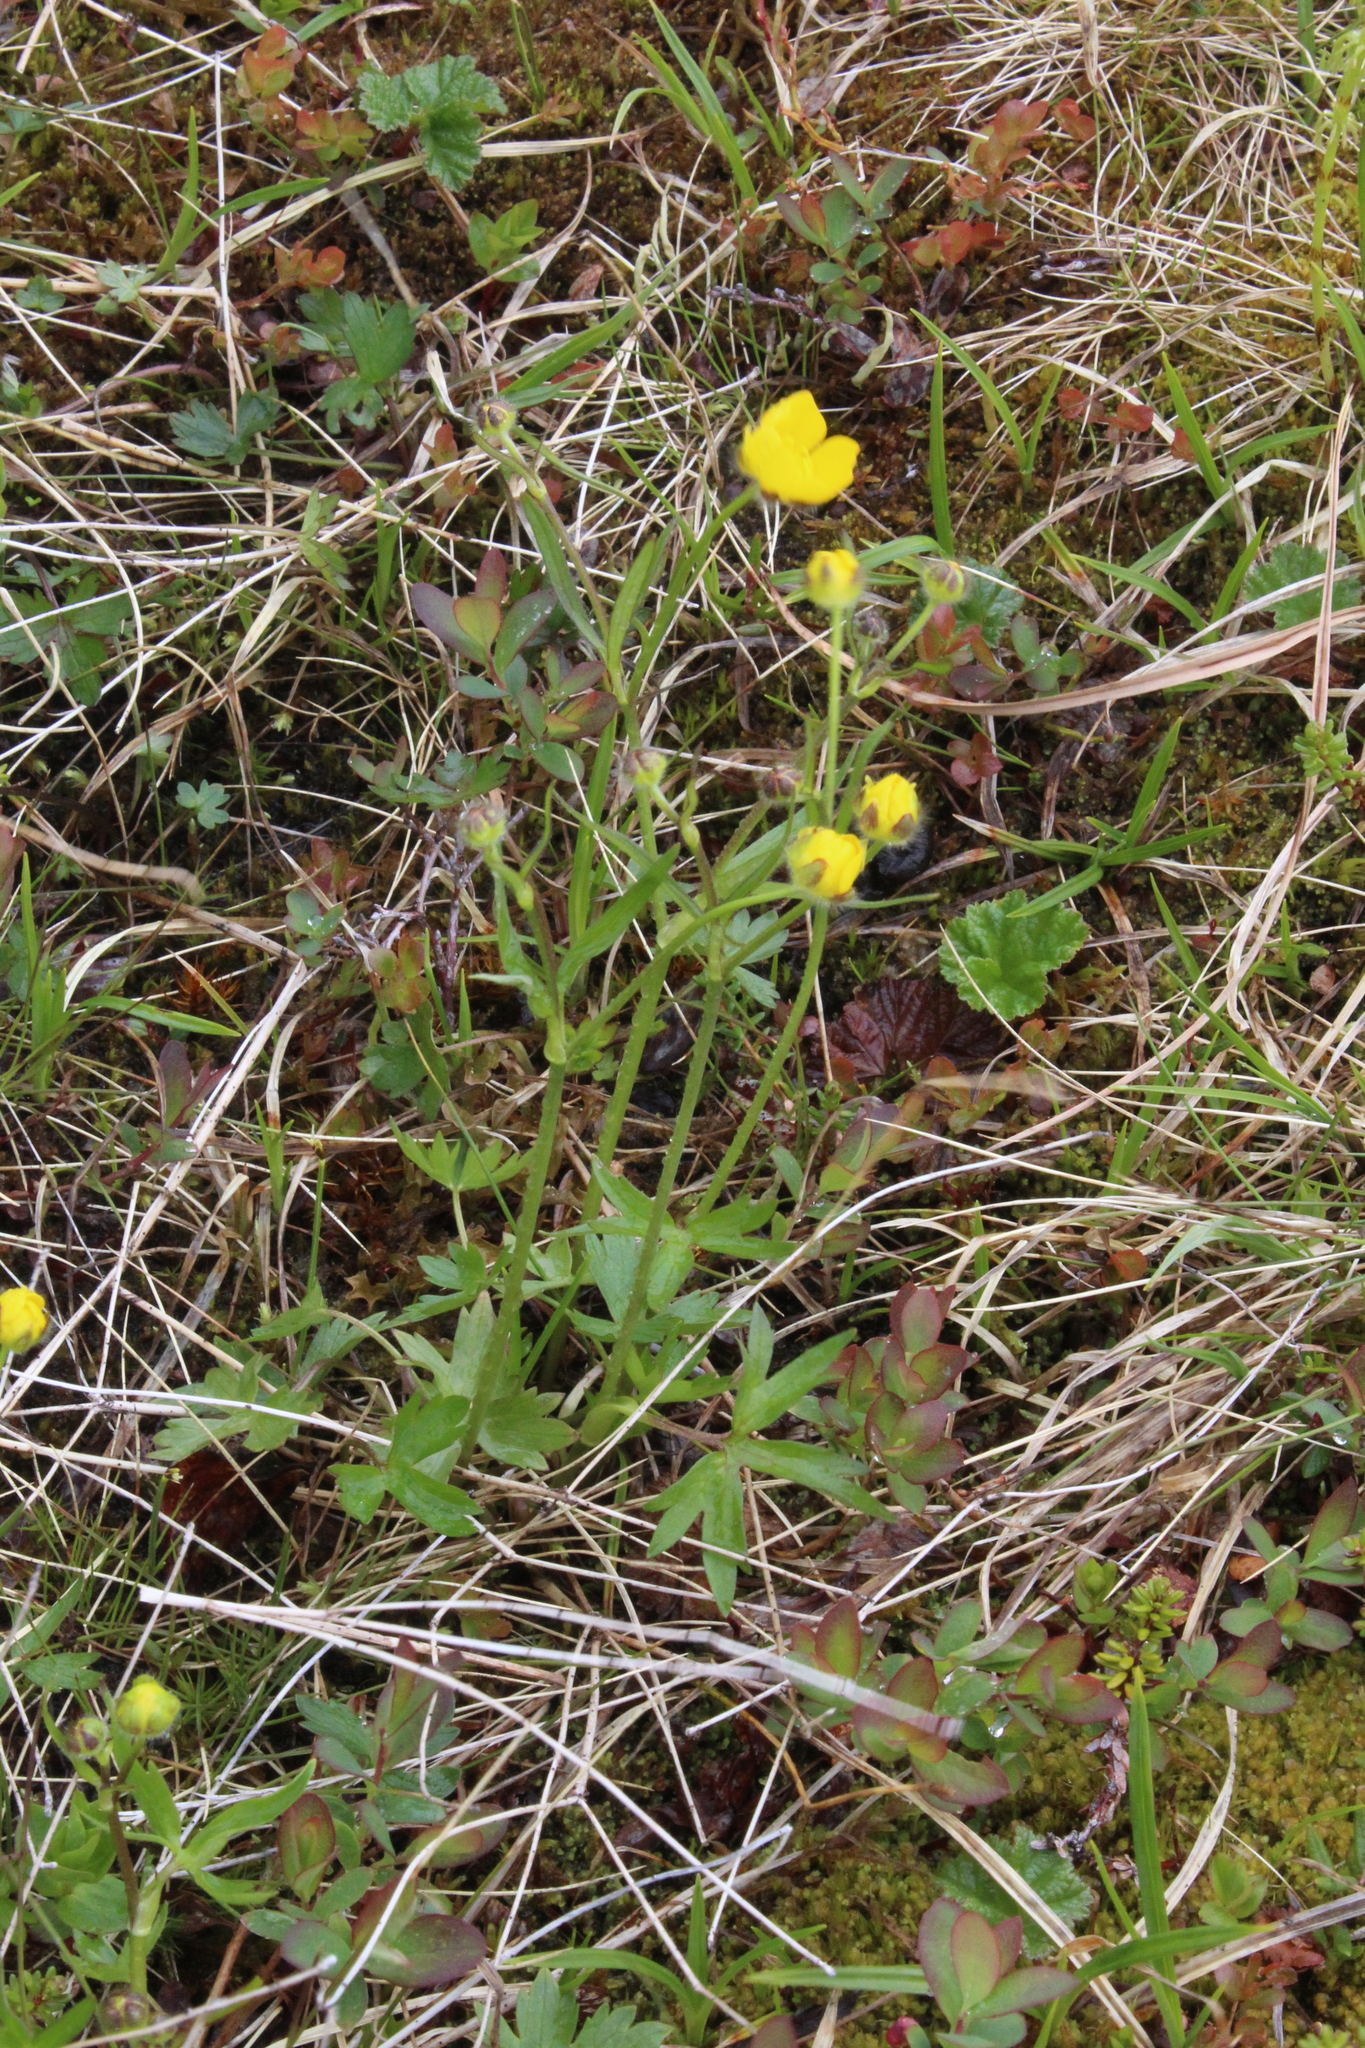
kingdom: Plantae
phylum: Tracheophyta
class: Magnoliopsida
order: Ranunculales
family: Ranunculaceae
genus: Ranunculus
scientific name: Ranunculus propinquus
